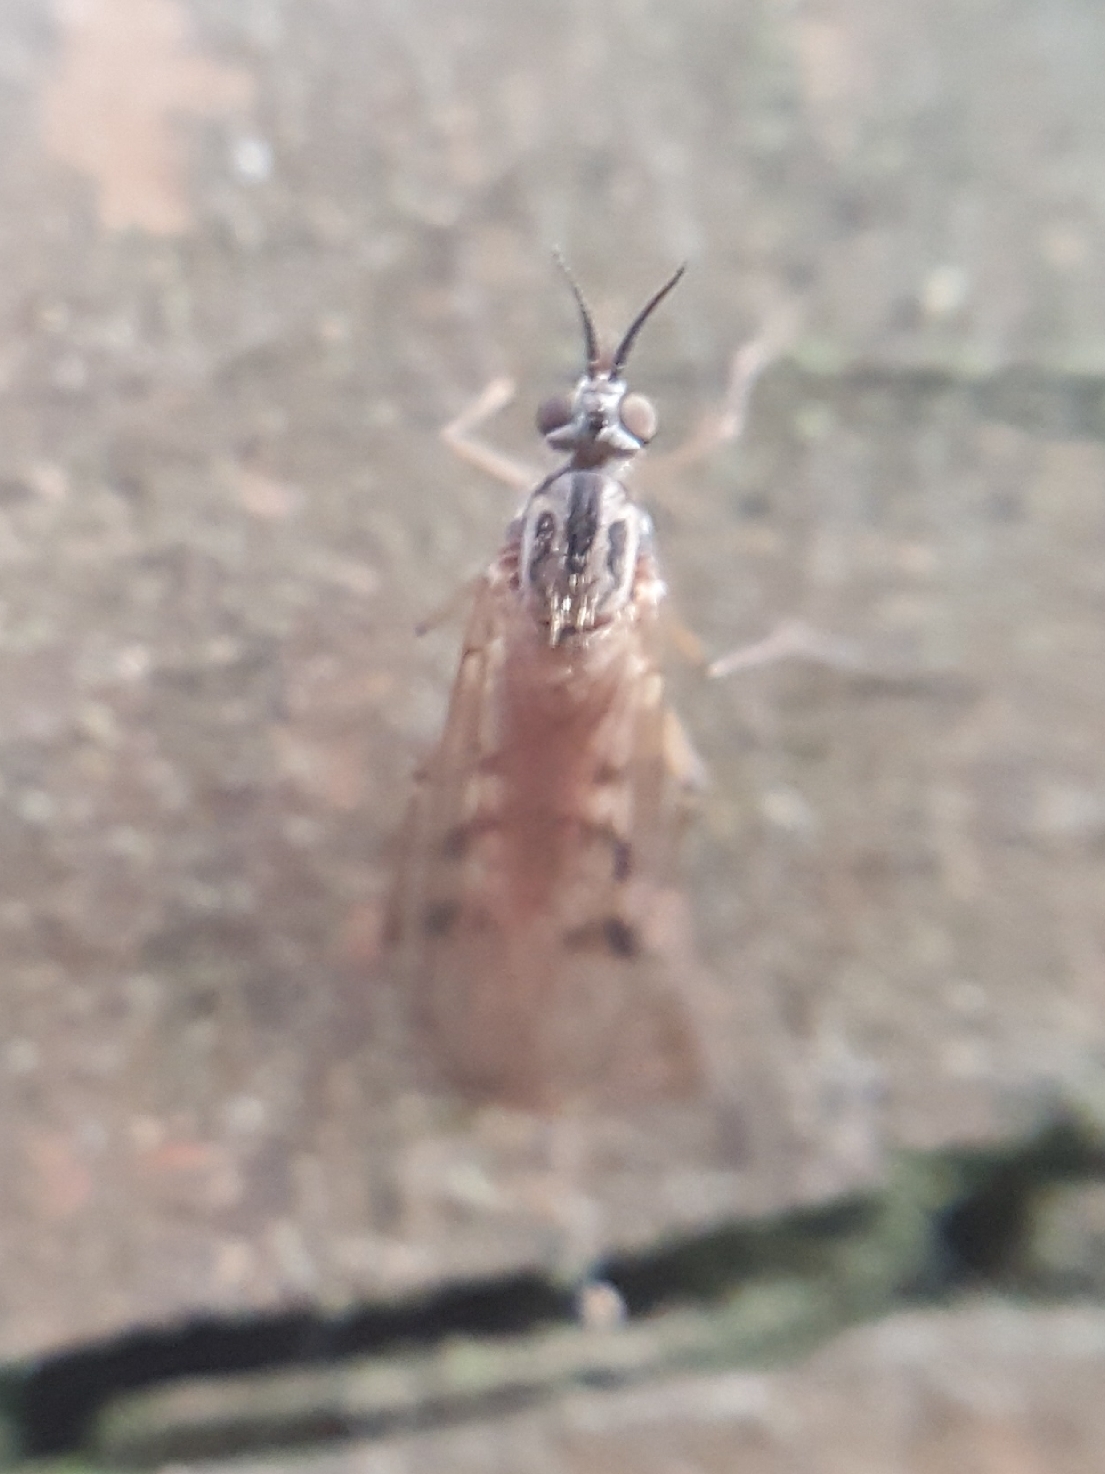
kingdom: Animalia
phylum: Arthropoda
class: Insecta
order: Diptera
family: Anisopodidae
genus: Sylvicola
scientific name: Sylvicola punctatus
